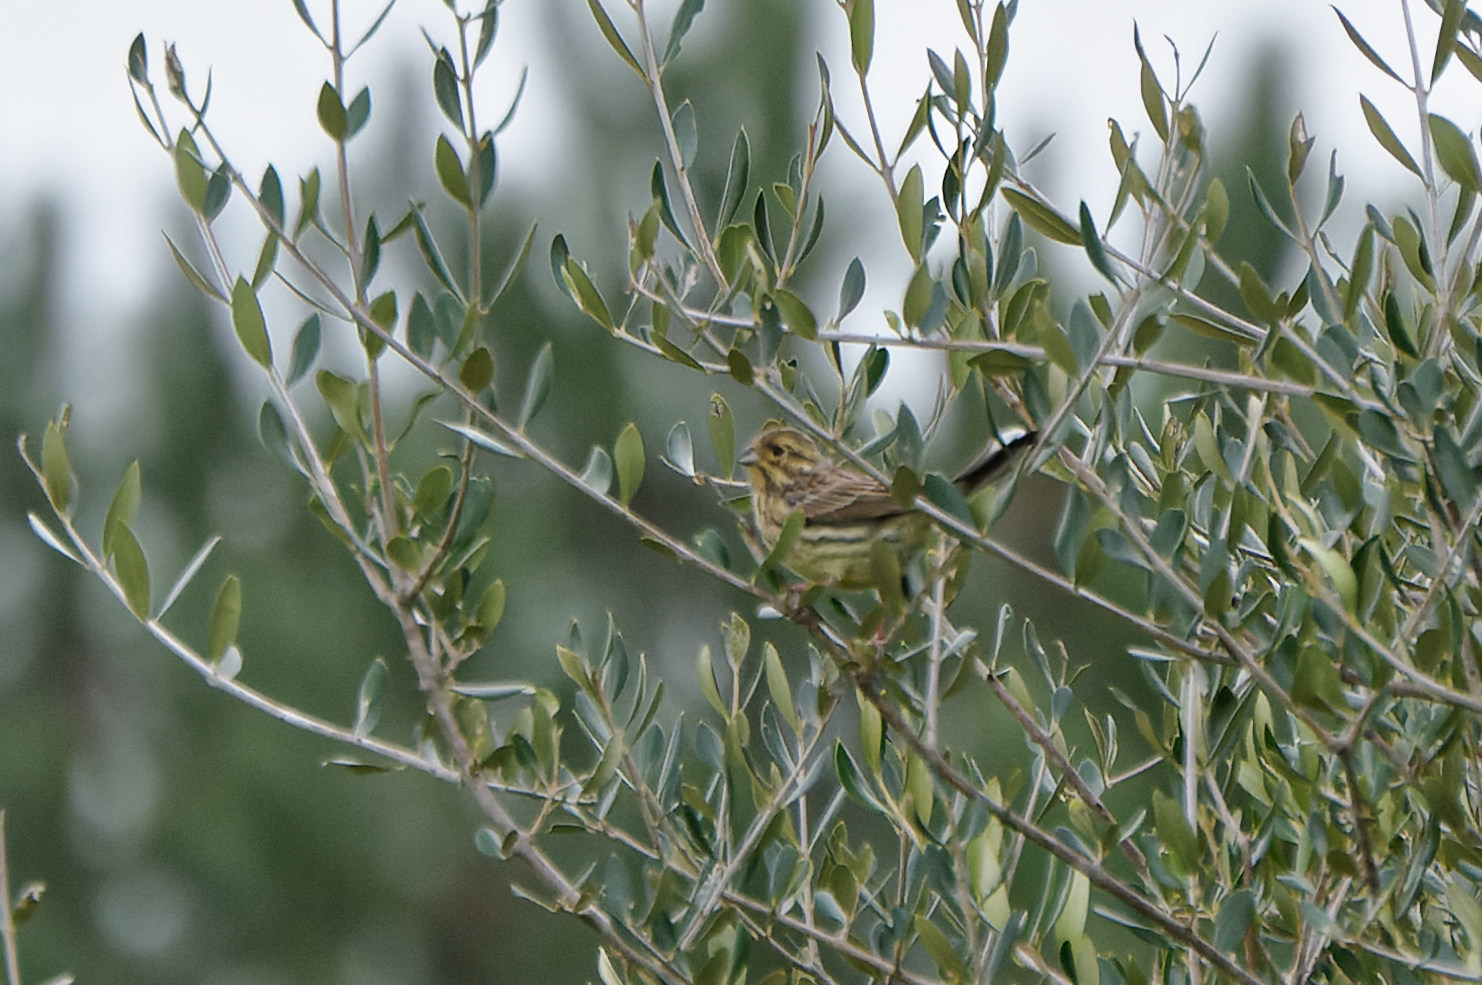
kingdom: Animalia
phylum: Chordata
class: Aves
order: Passeriformes
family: Emberizidae
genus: Emberiza
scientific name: Emberiza cirlus
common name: Cirl bunting
